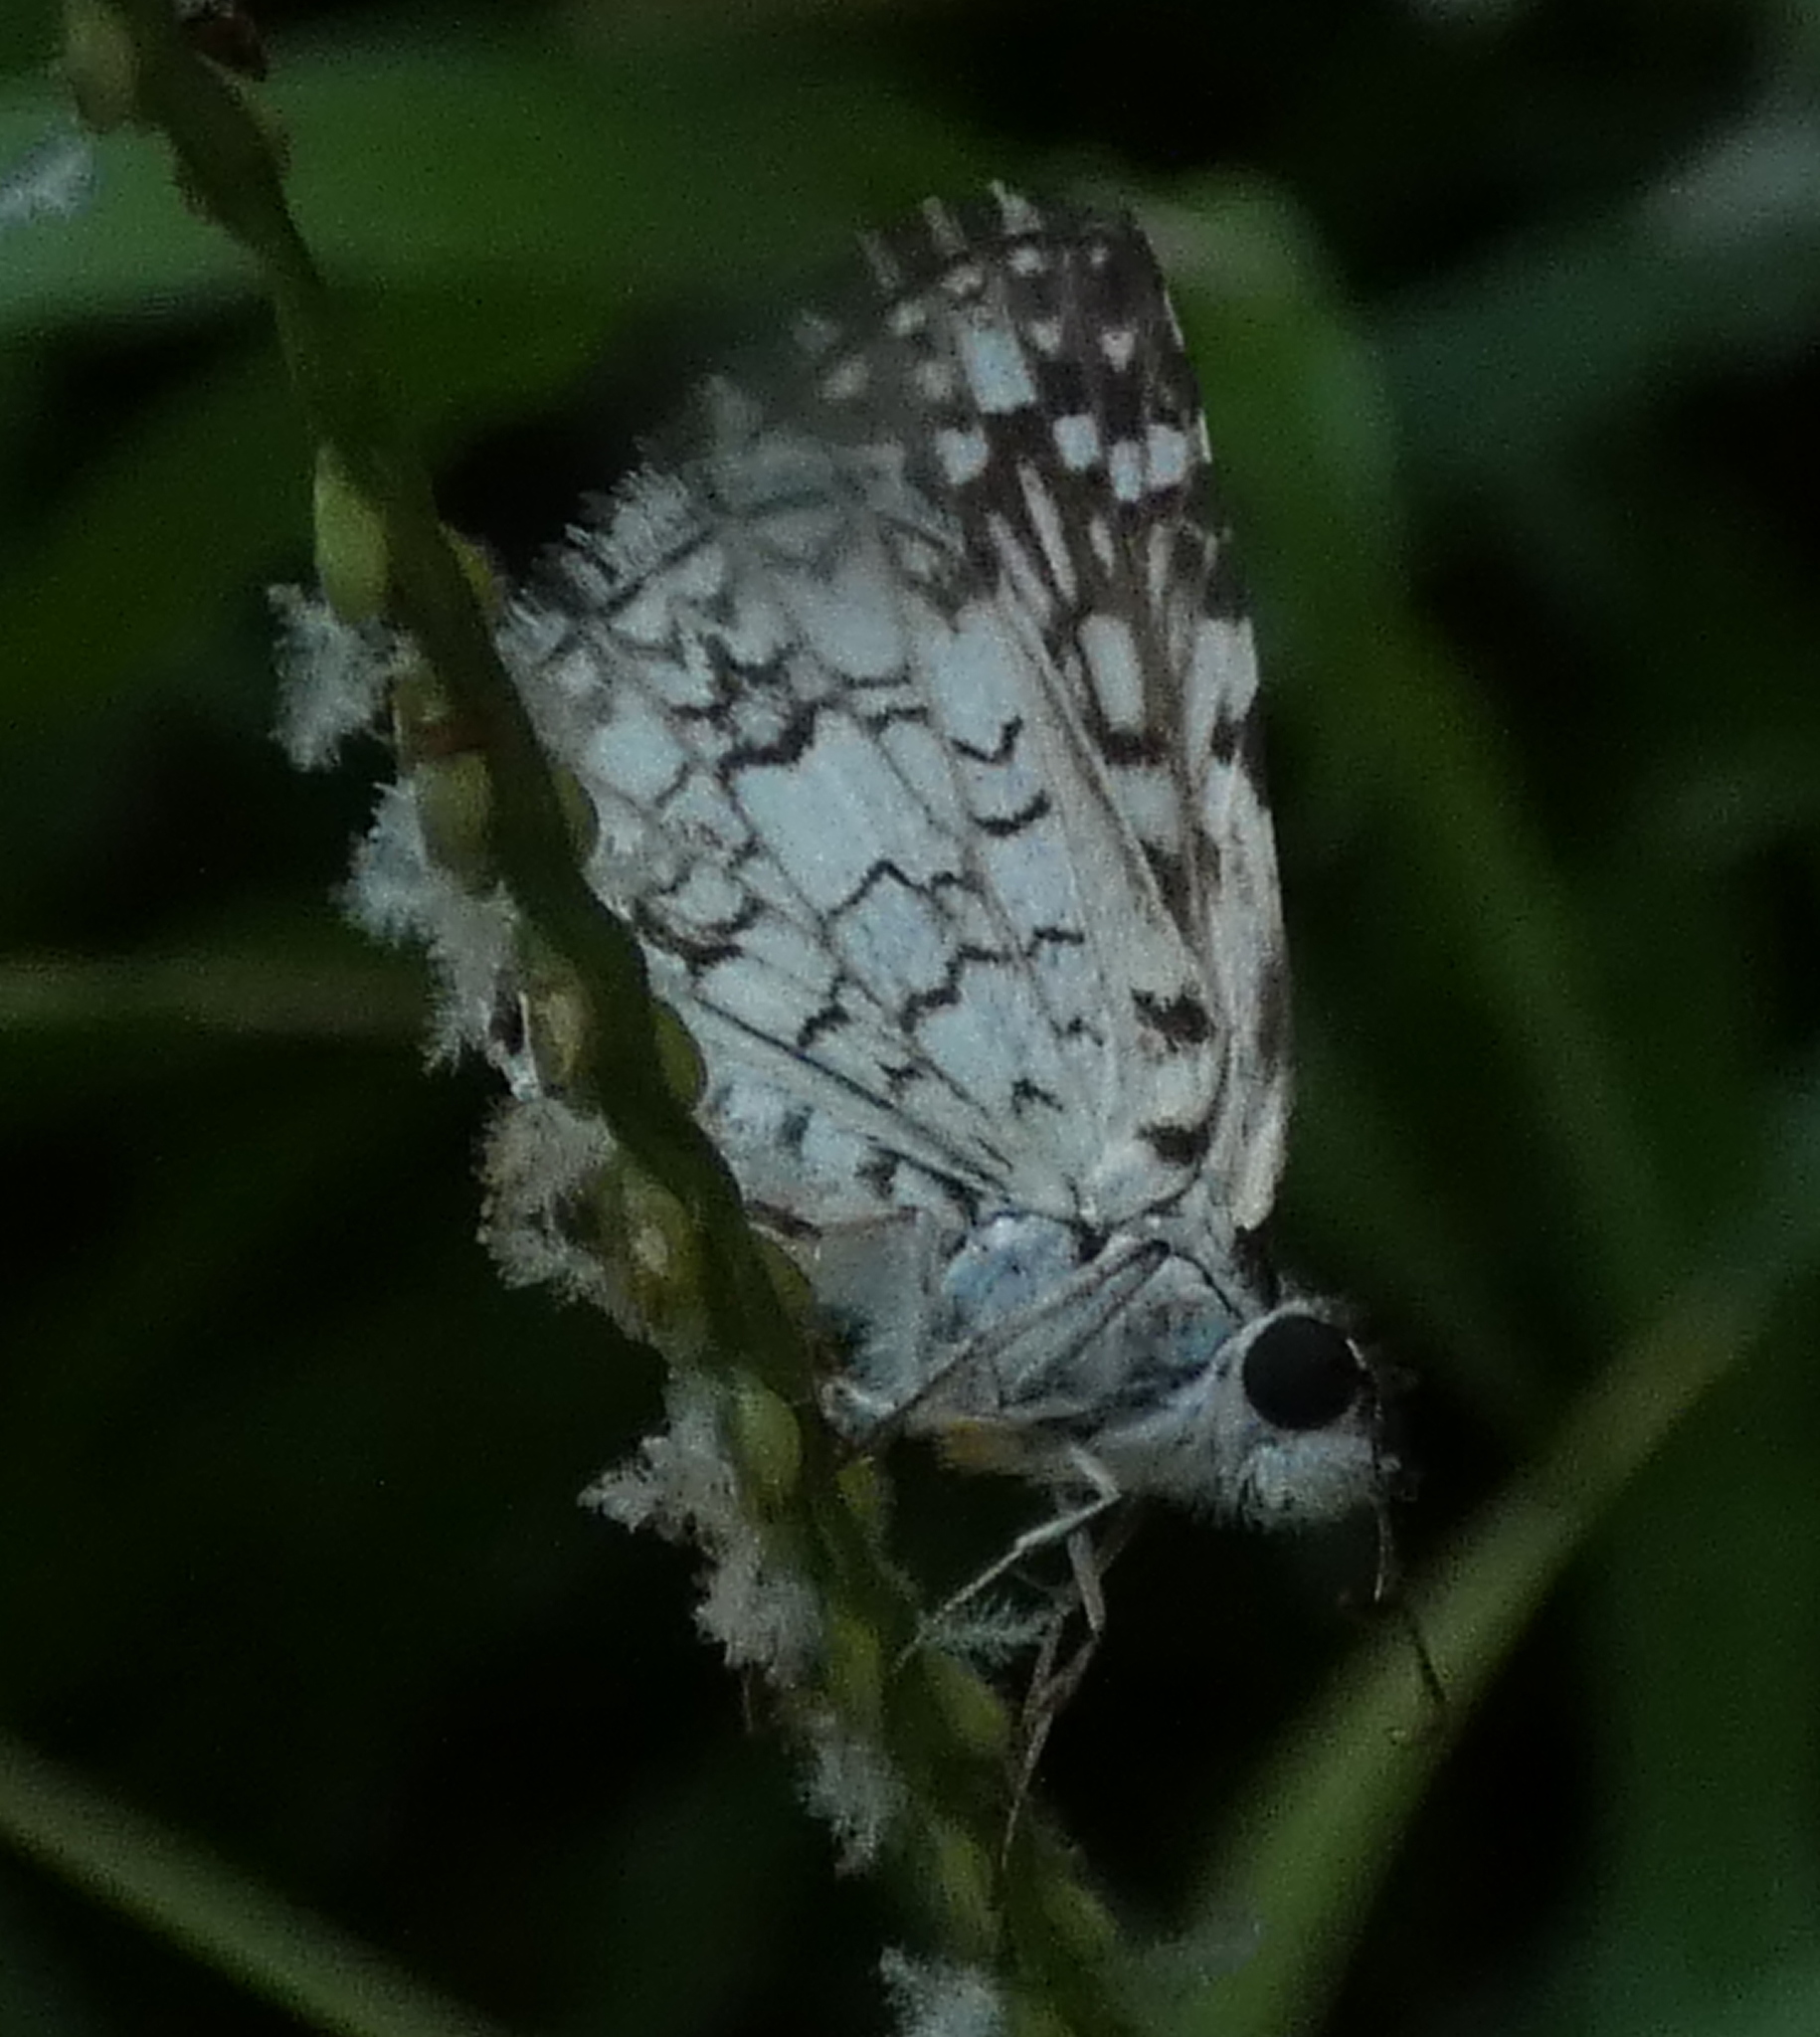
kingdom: Animalia
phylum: Arthropoda
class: Insecta
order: Lepidoptera
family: Hesperiidae
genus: Pyrgus
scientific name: Pyrgus oileus
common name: Tropical checkered-skipper
